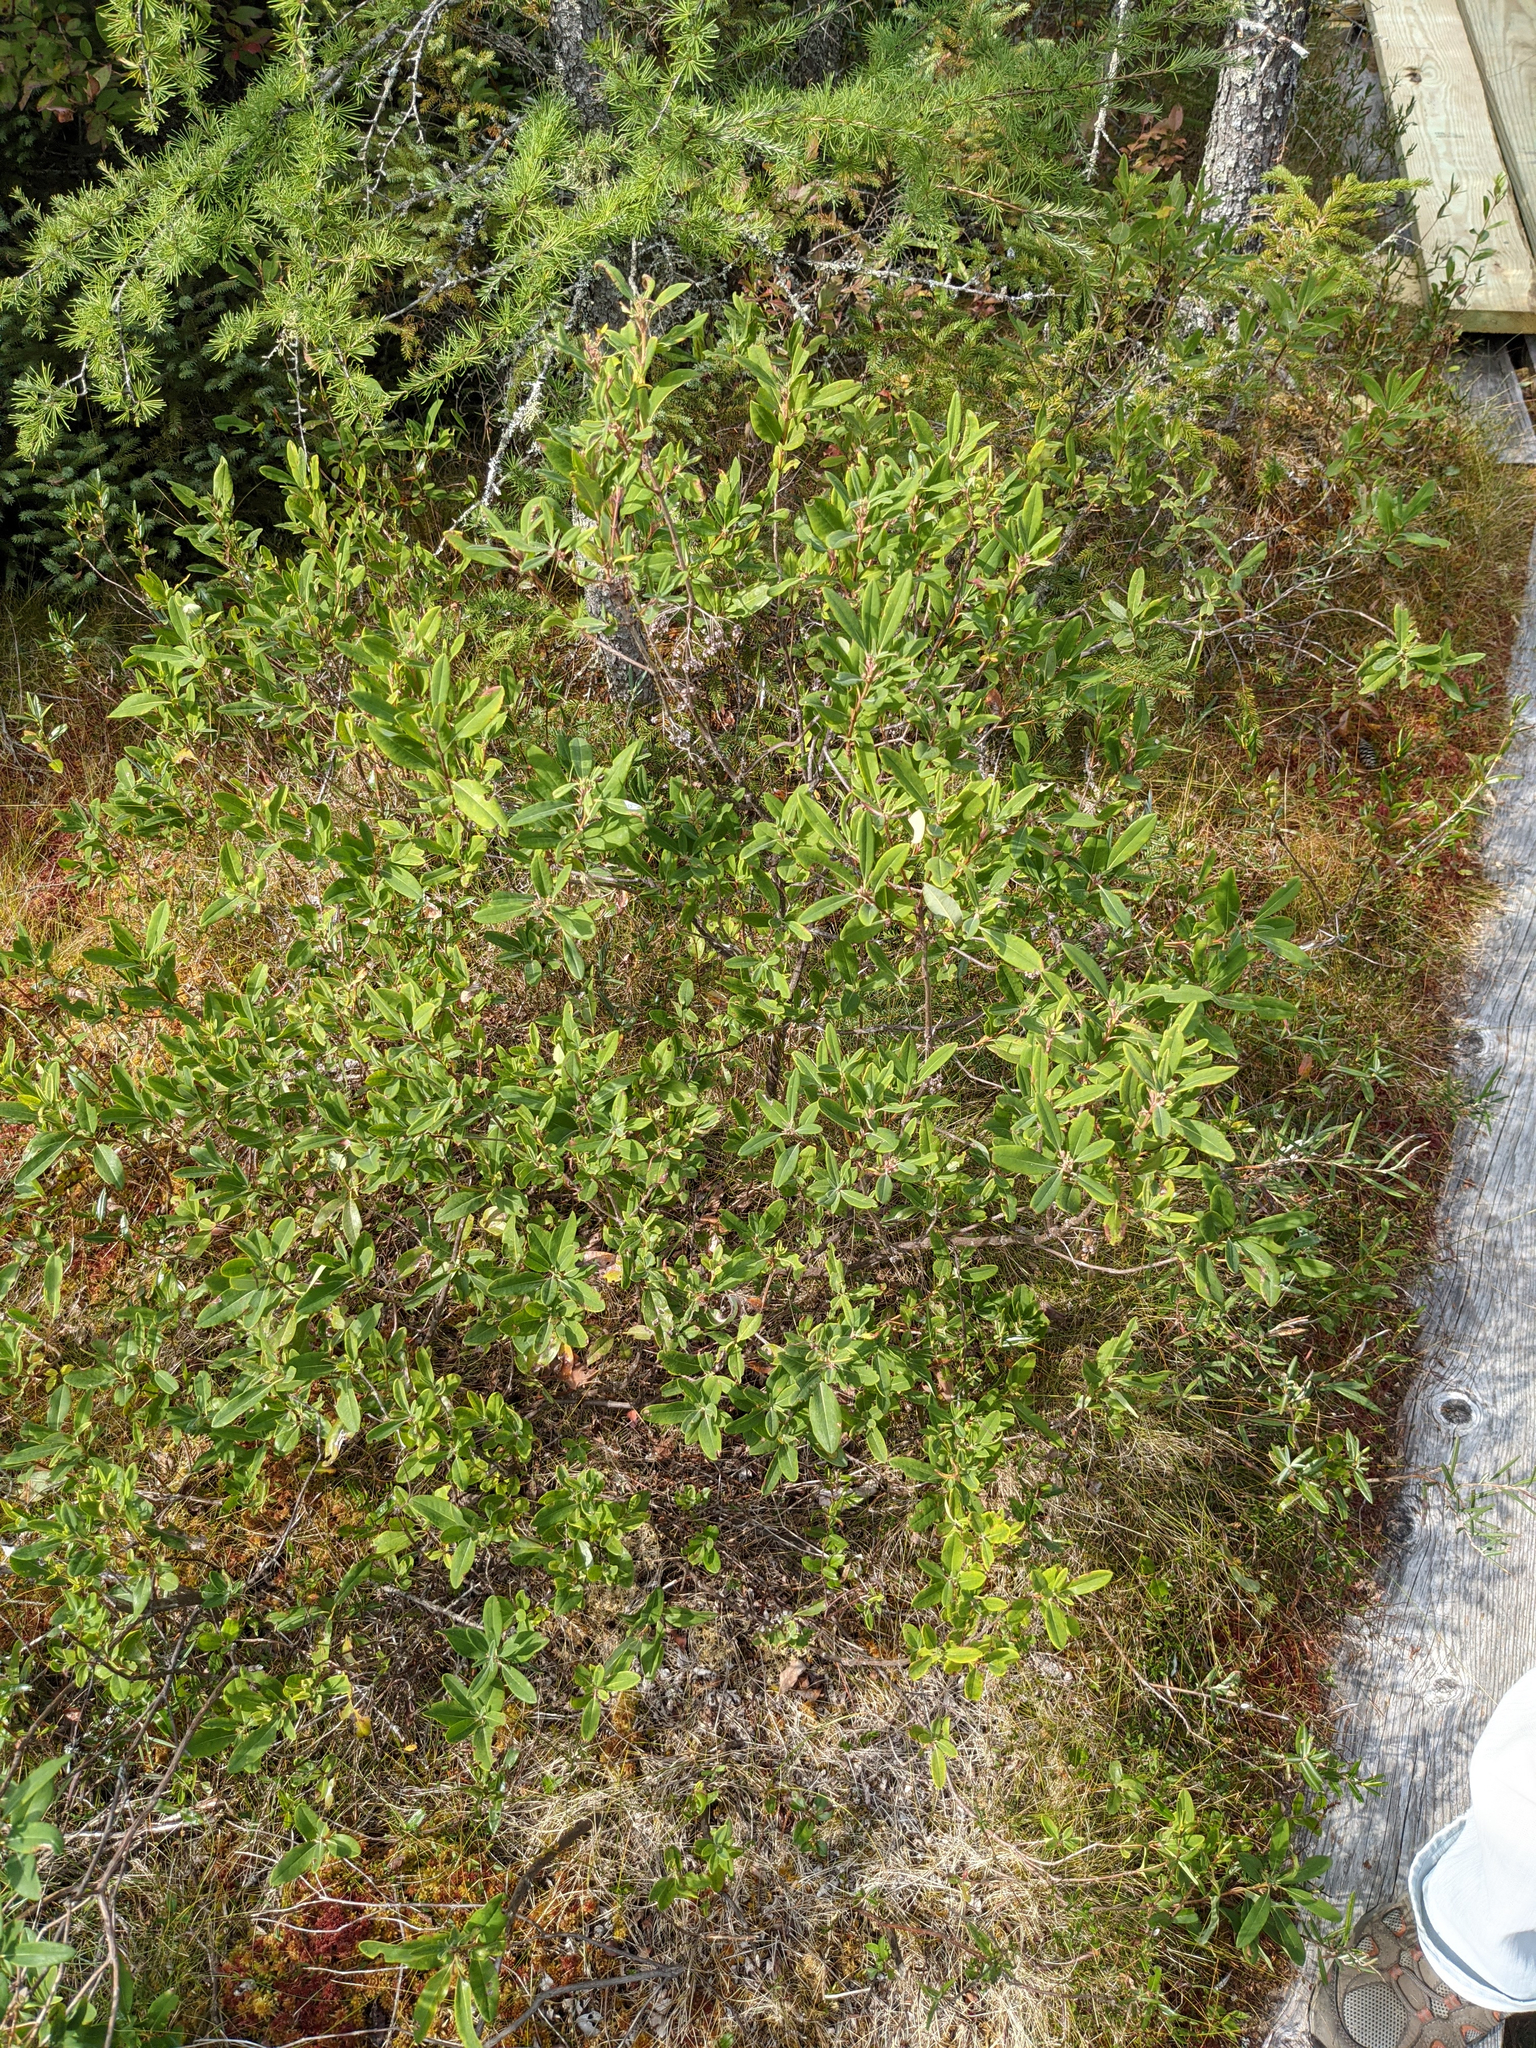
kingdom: Plantae
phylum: Tracheophyta
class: Magnoliopsida
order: Ericales
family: Ericaceae
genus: Kalmia
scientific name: Kalmia angustifolia
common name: Sheep-laurel
